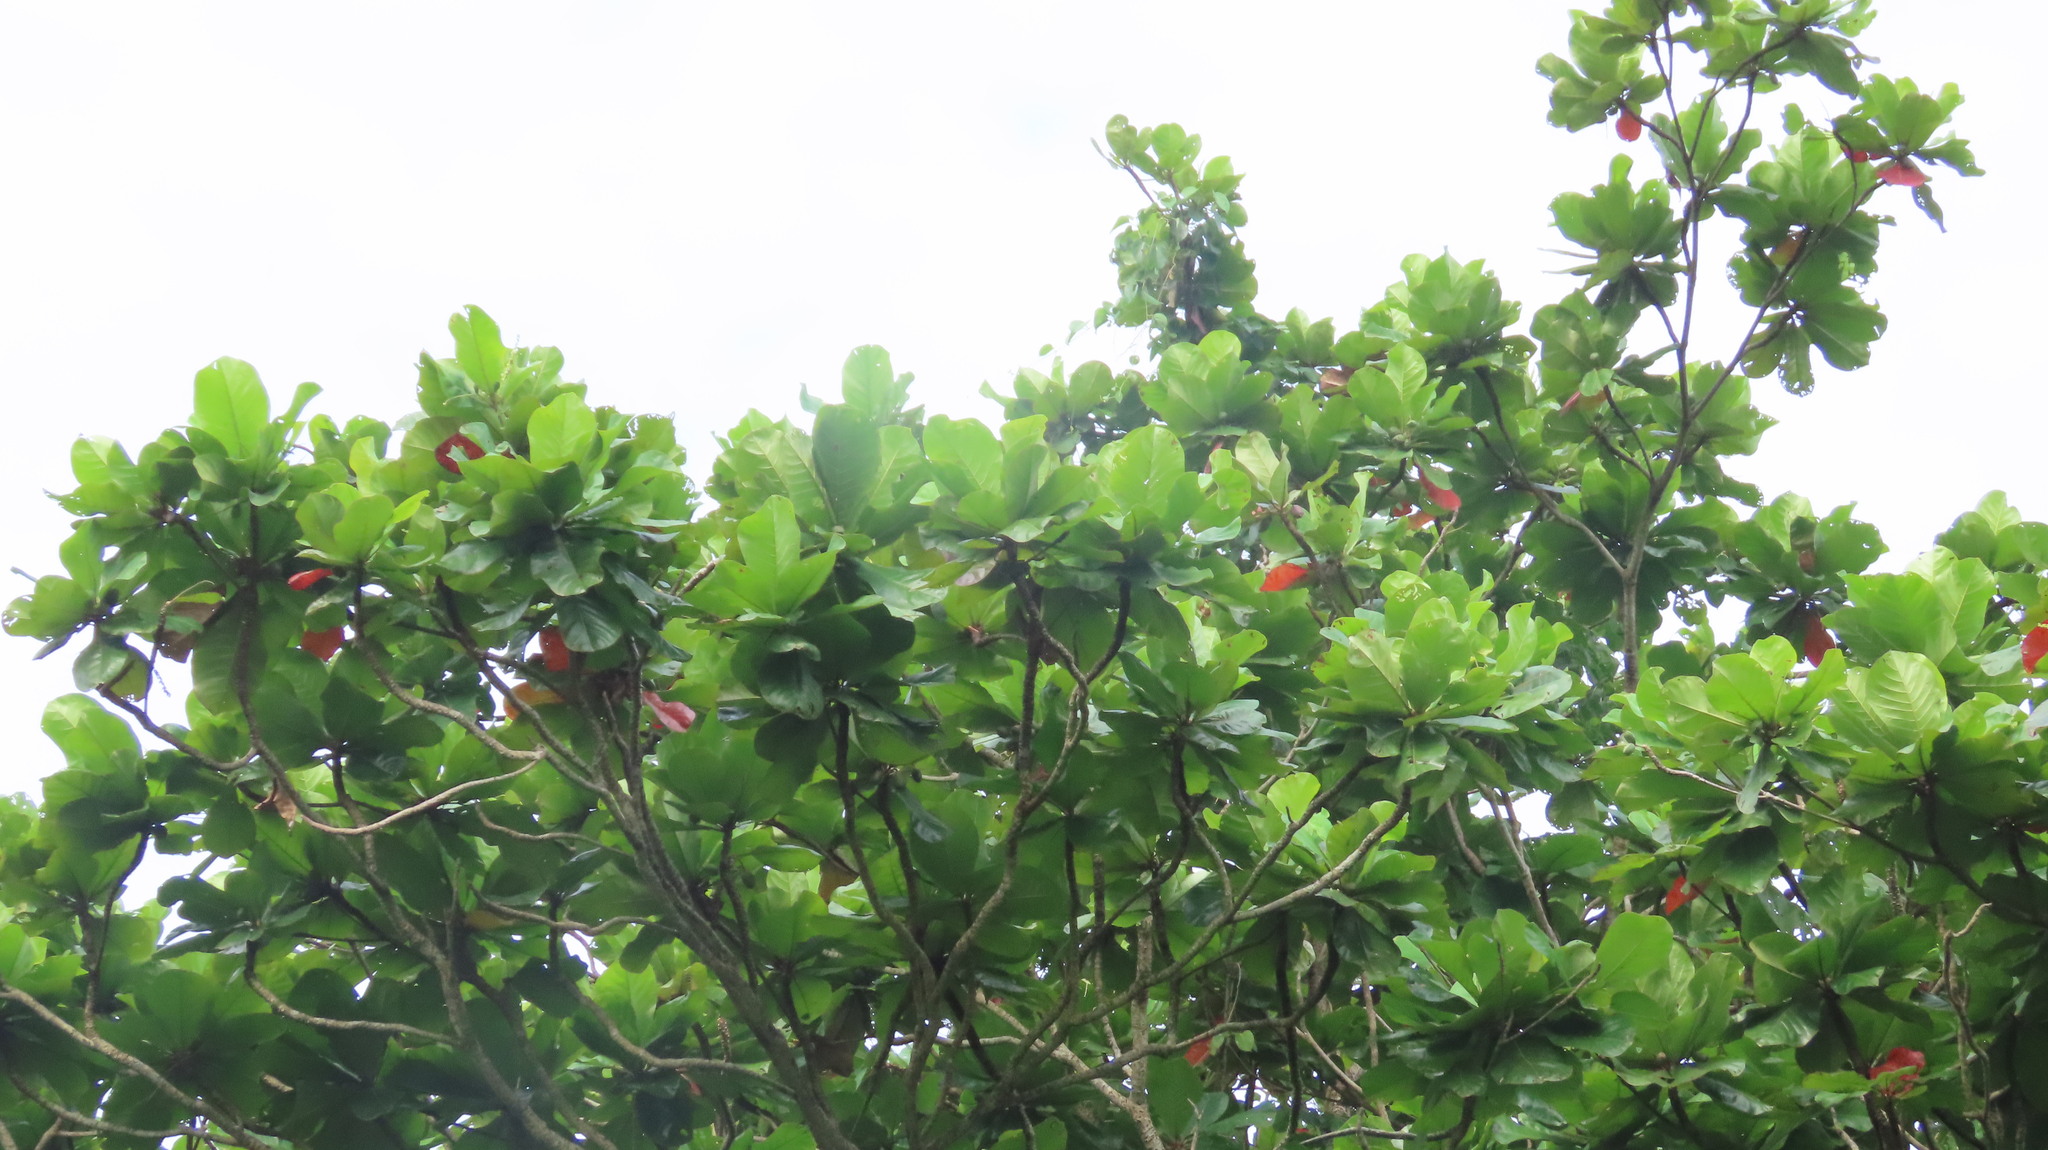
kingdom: Plantae
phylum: Tracheophyta
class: Magnoliopsida
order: Myrtales
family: Combretaceae
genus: Terminalia
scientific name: Terminalia catappa
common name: Tropical almond
